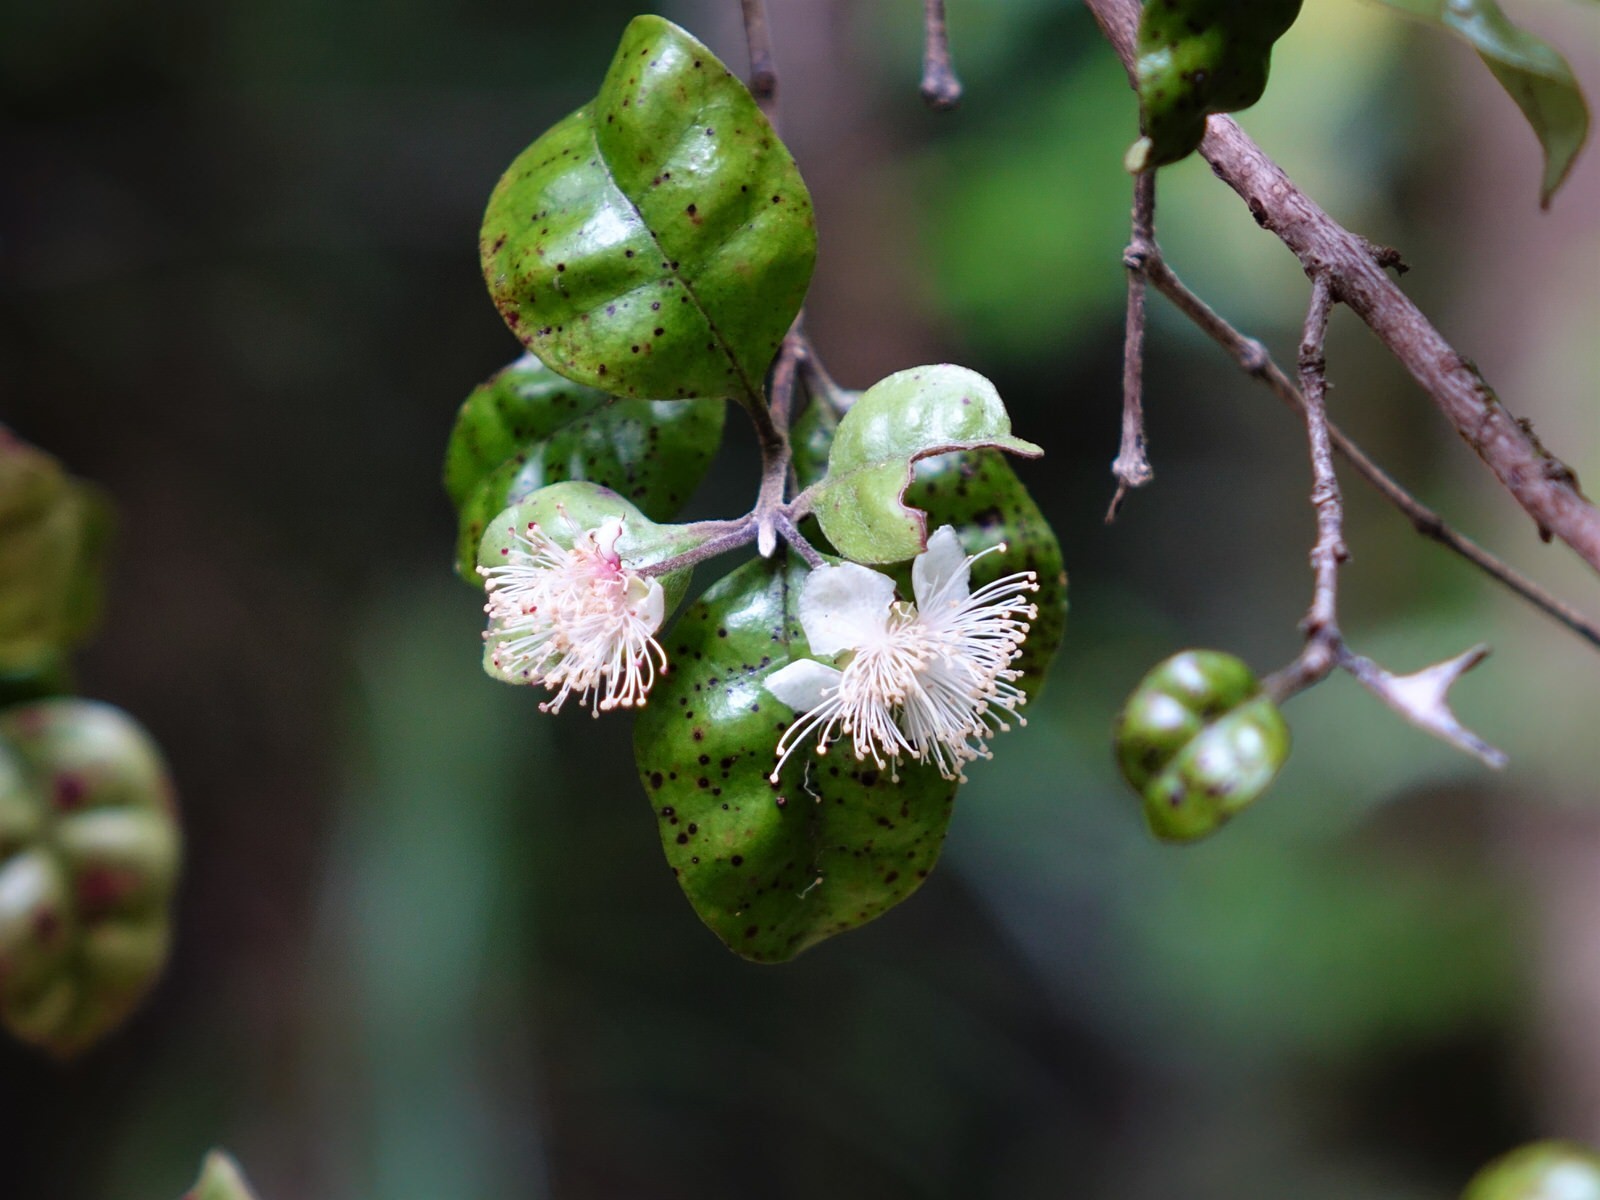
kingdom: Plantae
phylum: Tracheophyta
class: Magnoliopsida
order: Myrtales
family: Myrtaceae
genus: Lophomyrtus
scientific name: Lophomyrtus bullata
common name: Rama rama
